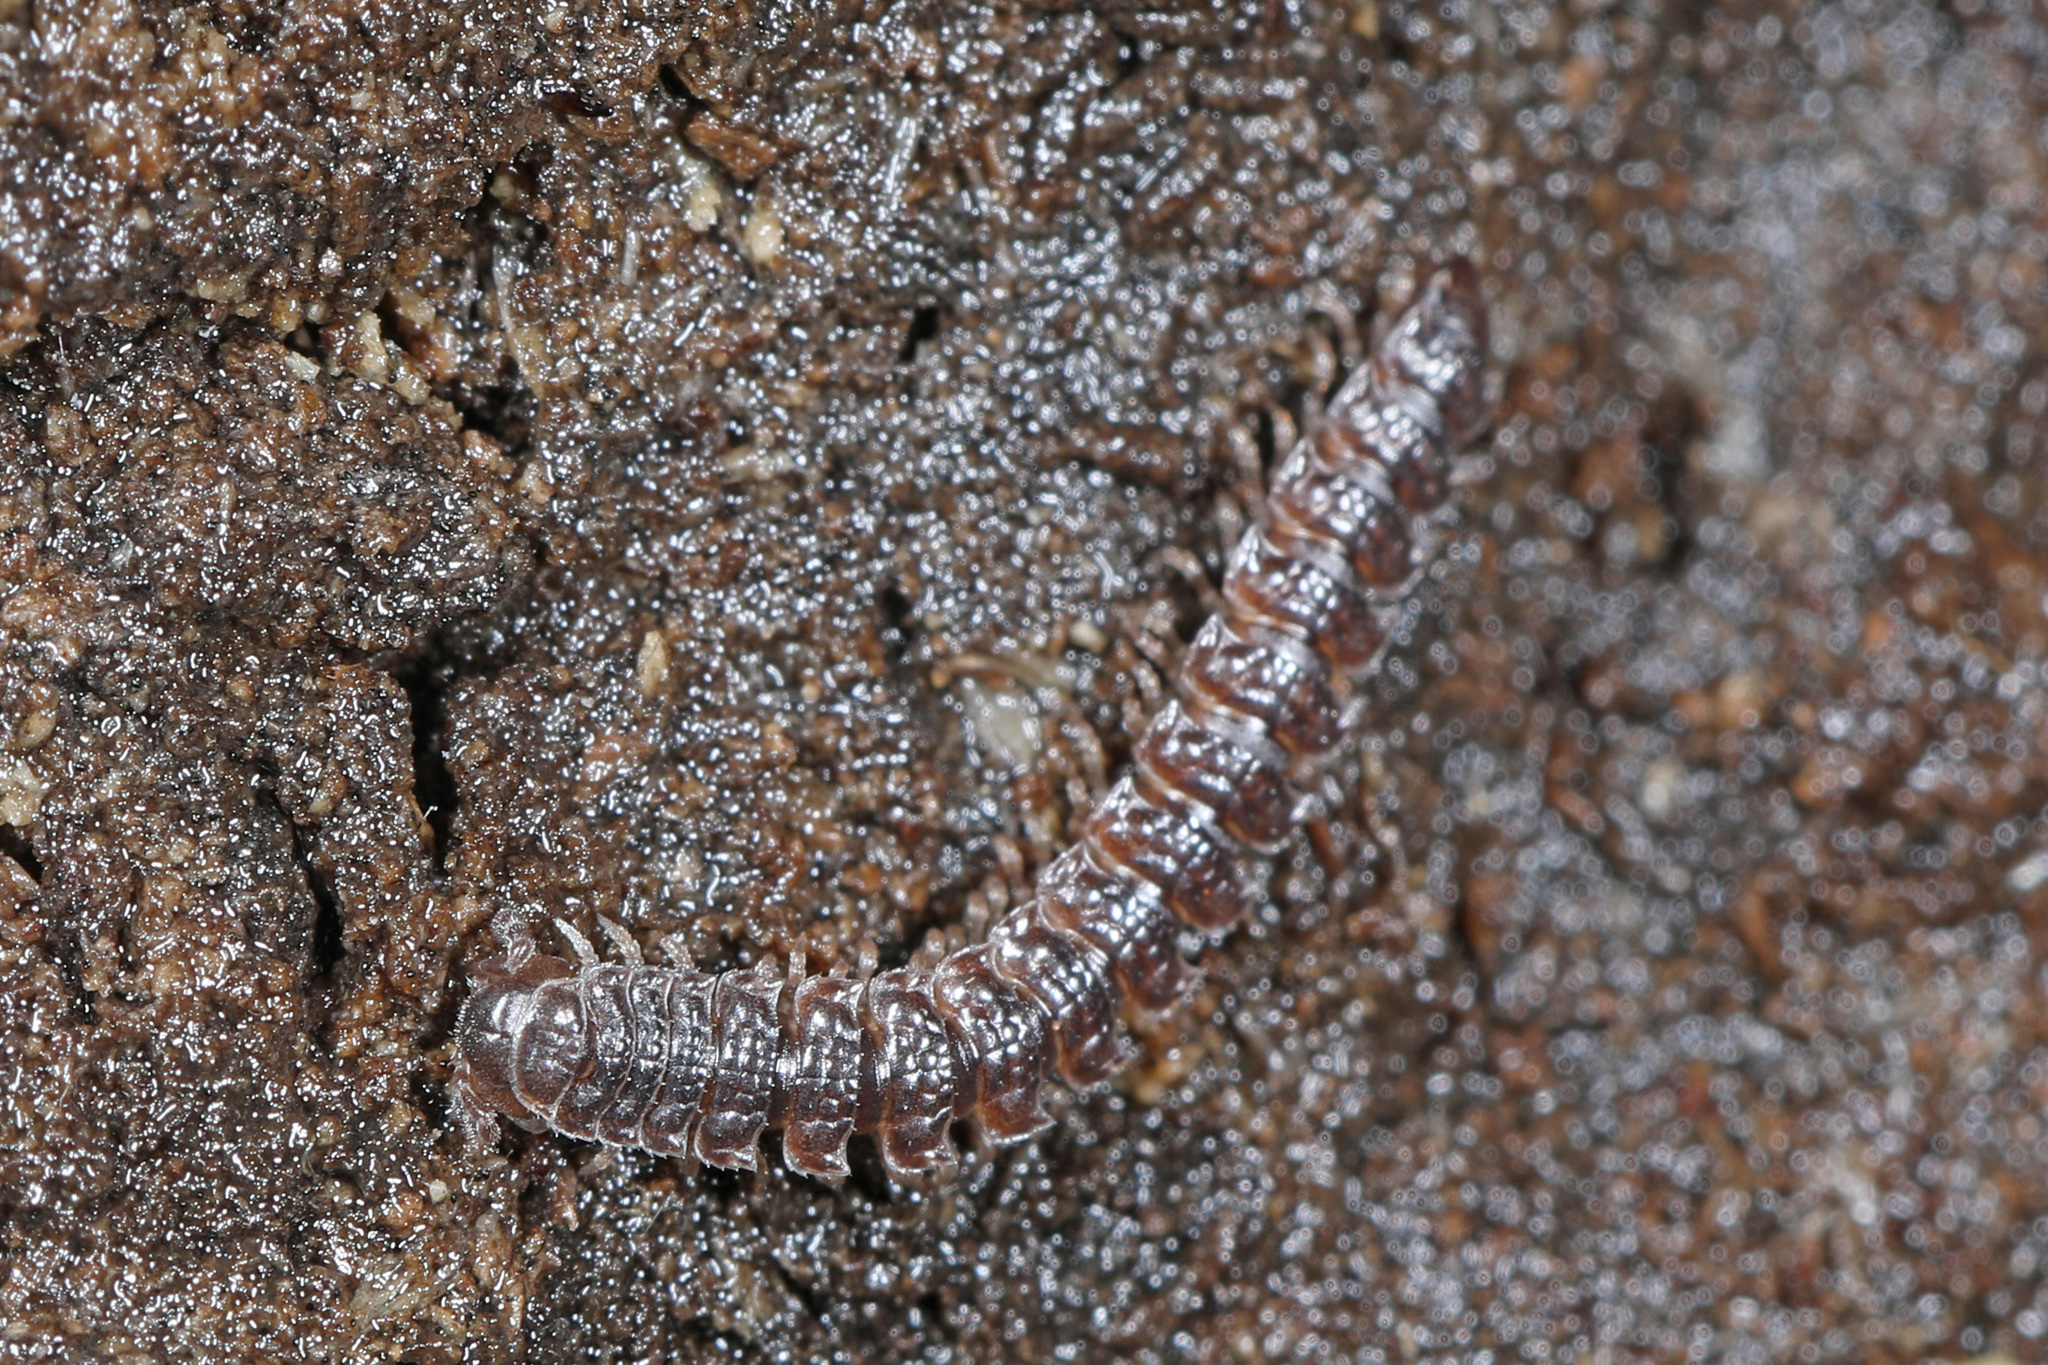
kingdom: Animalia
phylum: Arthropoda
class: Diplopoda
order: Polydesmida
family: Polydesmidae
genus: Pseudopolydesmus
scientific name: Pseudopolydesmus paludicolus
